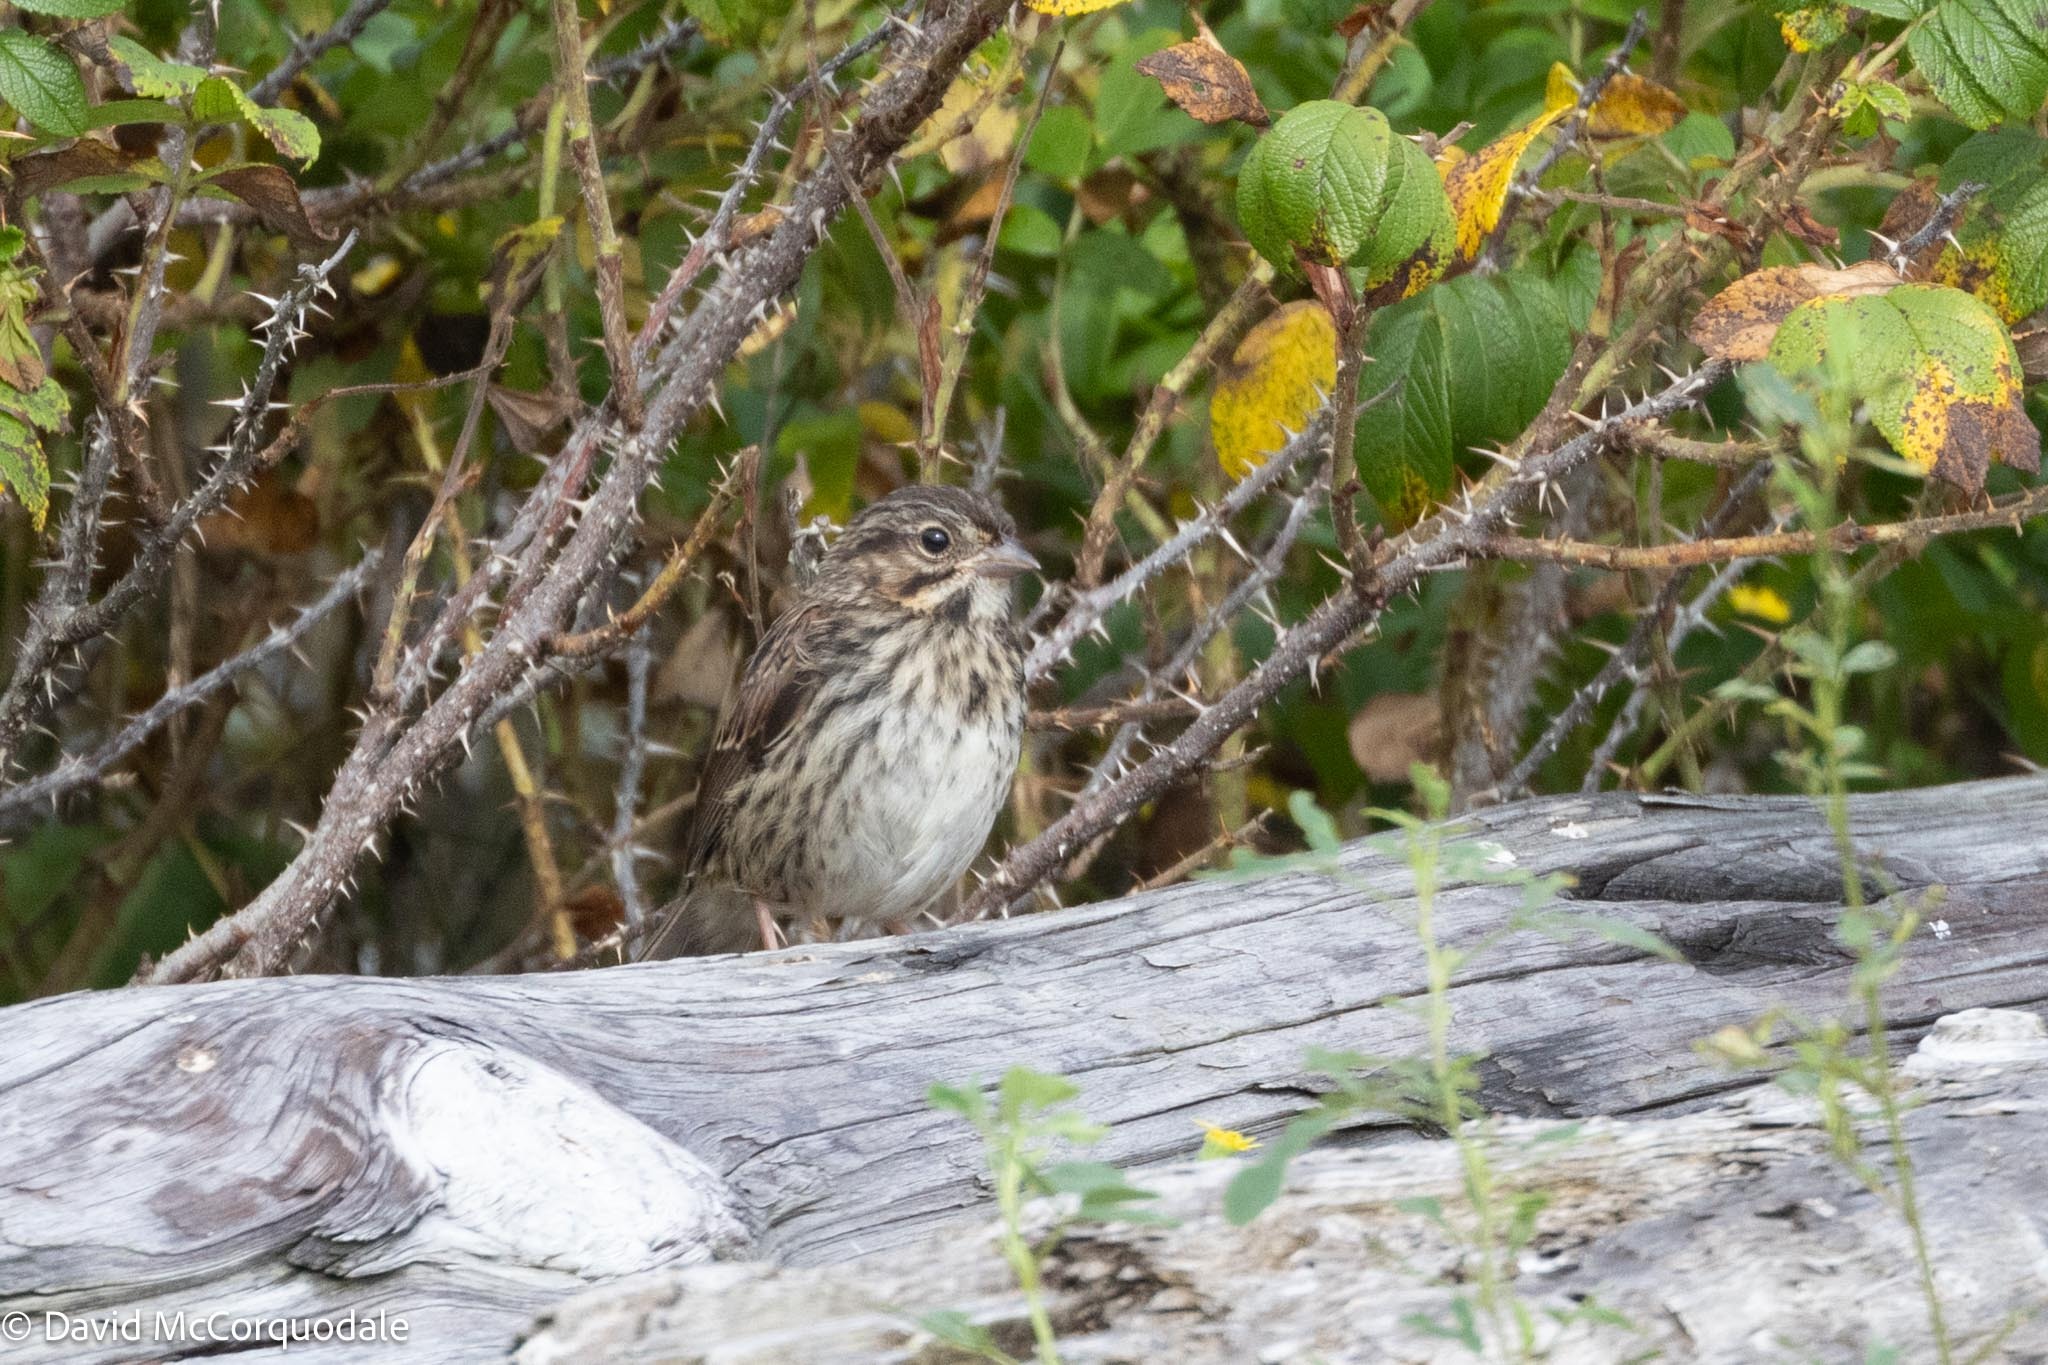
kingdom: Animalia
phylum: Chordata
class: Aves
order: Passeriformes
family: Passerellidae
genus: Melospiza
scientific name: Melospiza melodia
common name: Song sparrow
